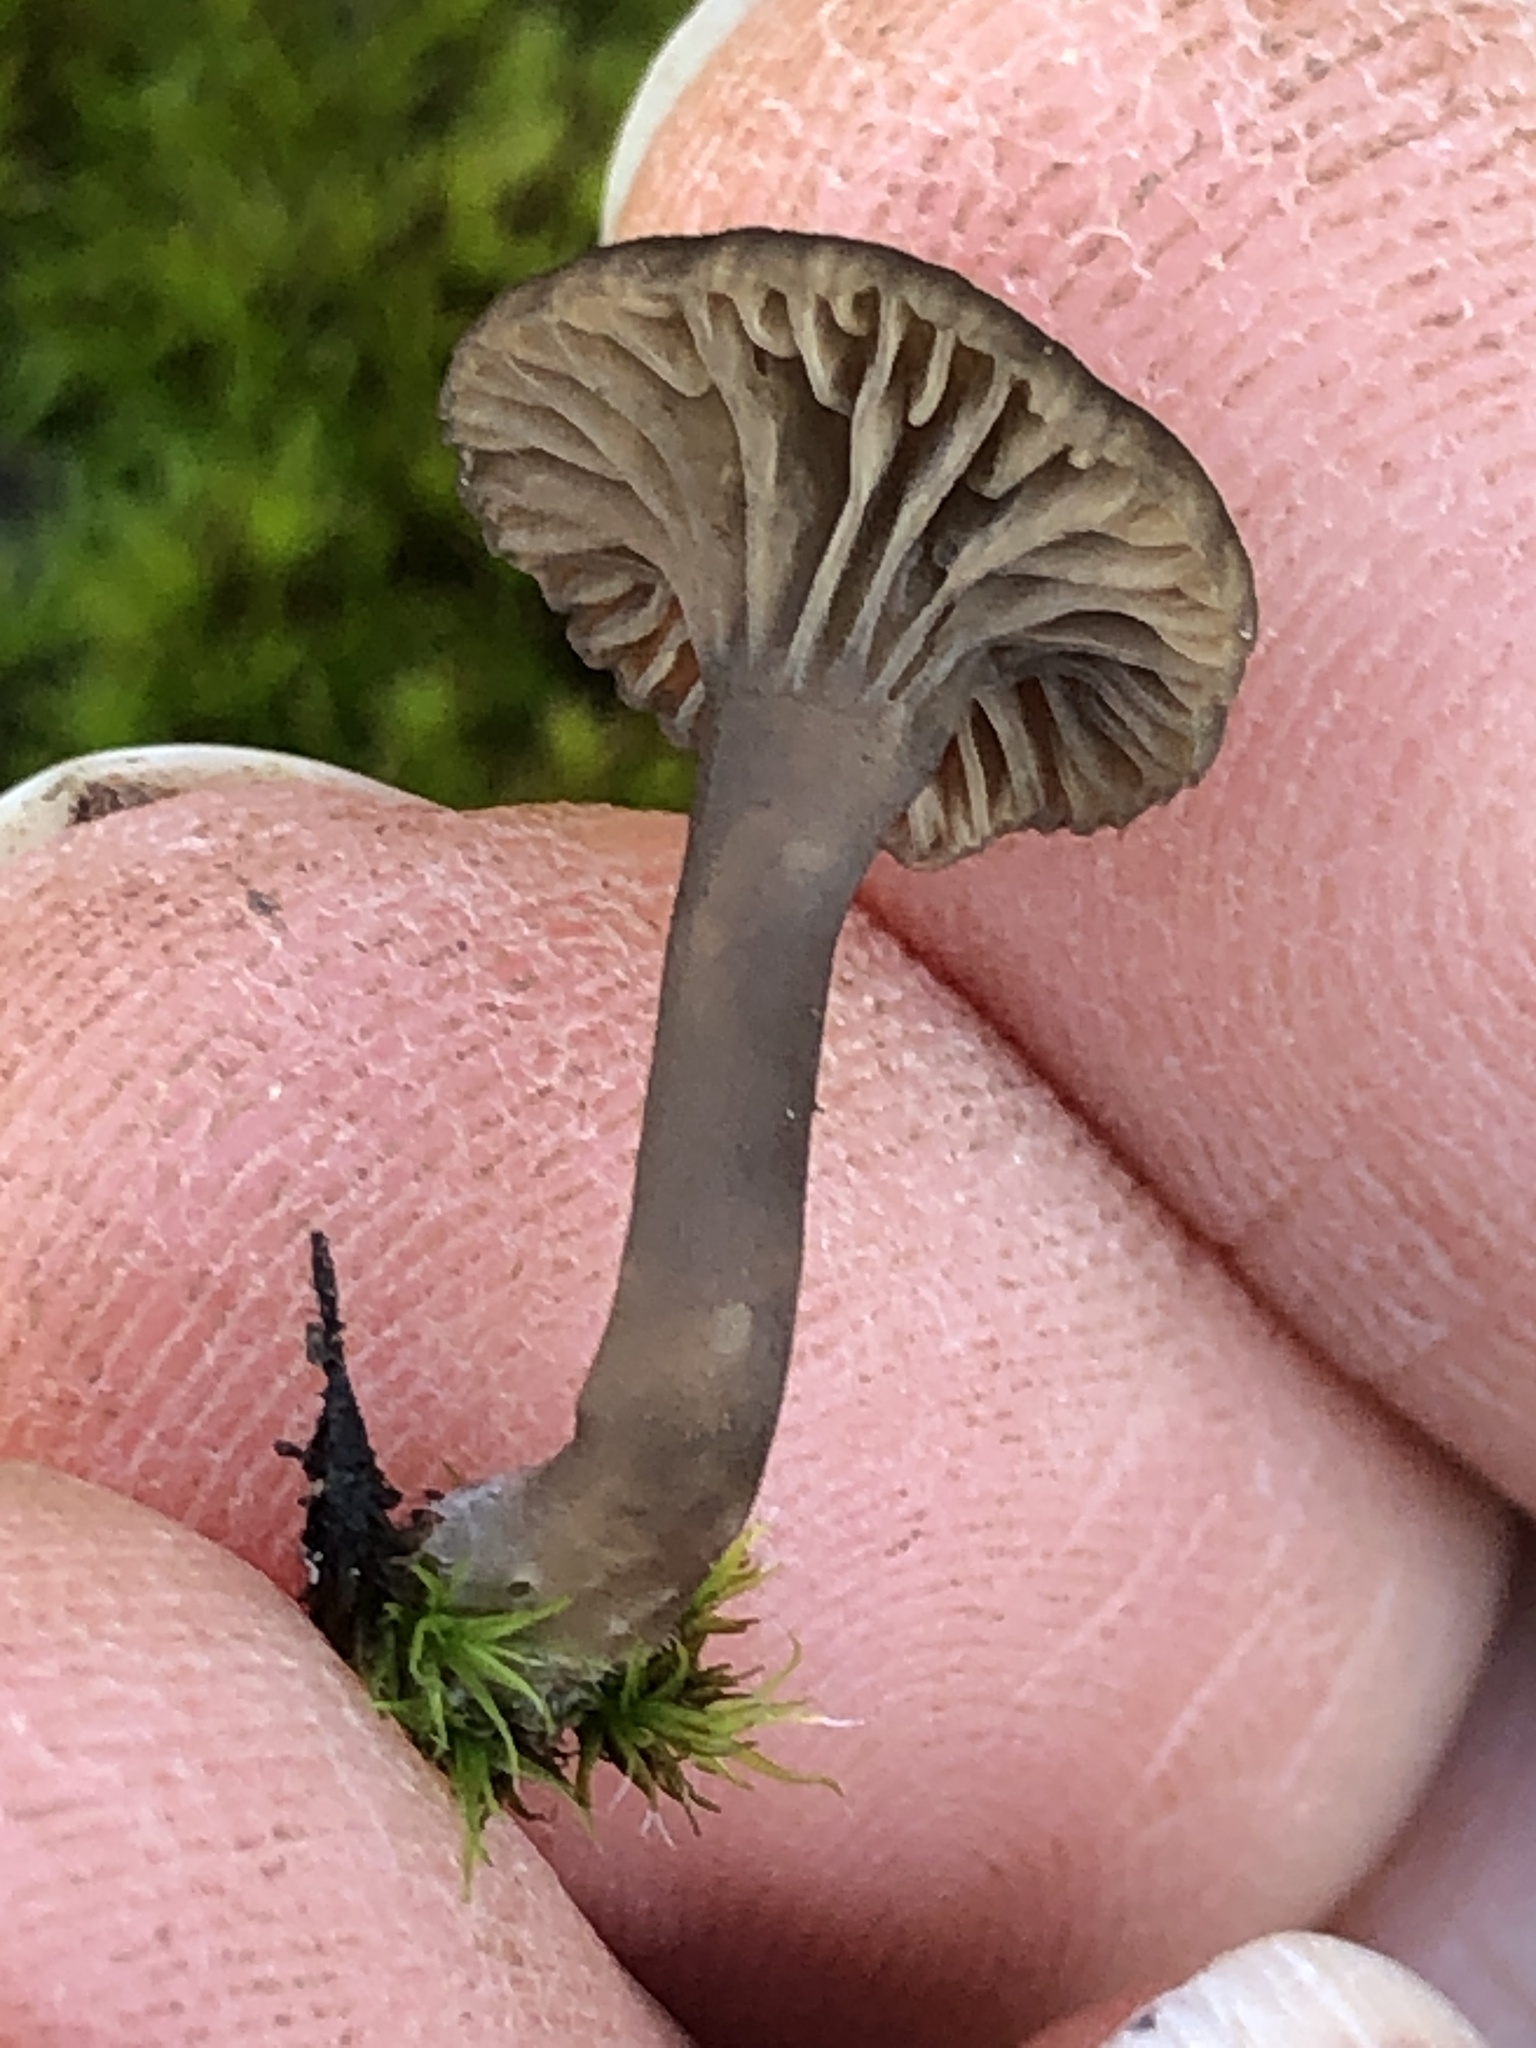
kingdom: Fungi
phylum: Basidiomycota
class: Agaricomycetes
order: Agaricales
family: Hygrophoraceae
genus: Arrhenia
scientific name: Arrhenia epichysium
